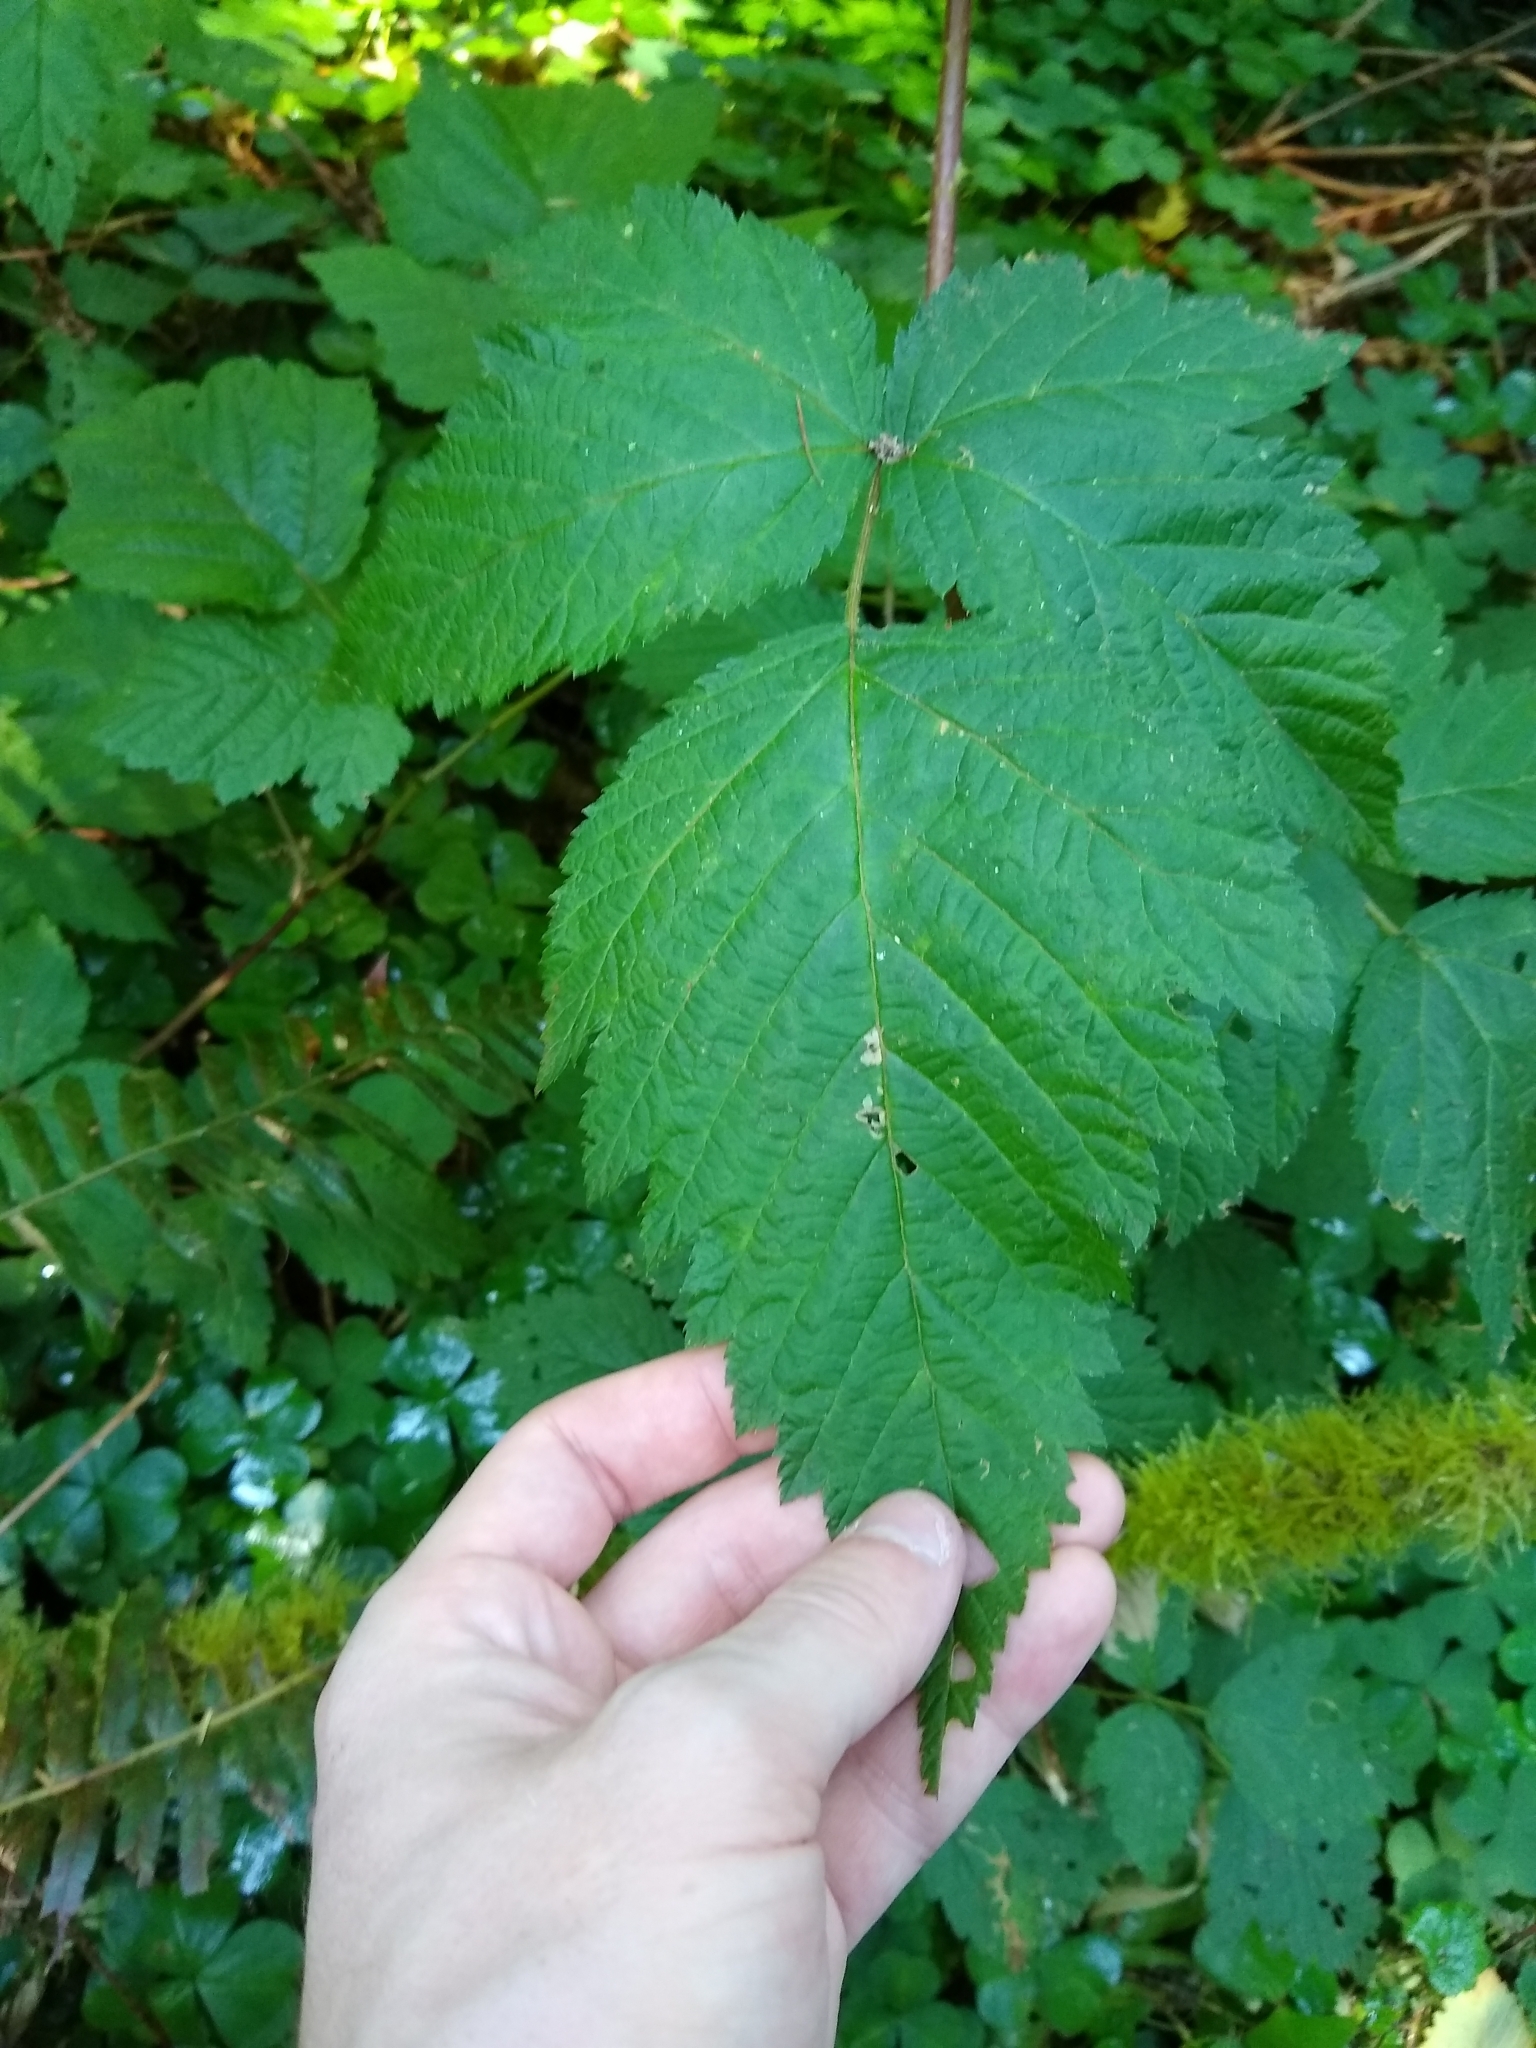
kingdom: Plantae
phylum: Tracheophyta
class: Magnoliopsida
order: Rosales
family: Rosaceae
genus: Rubus
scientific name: Rubus spectabilis
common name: Salmonberry
